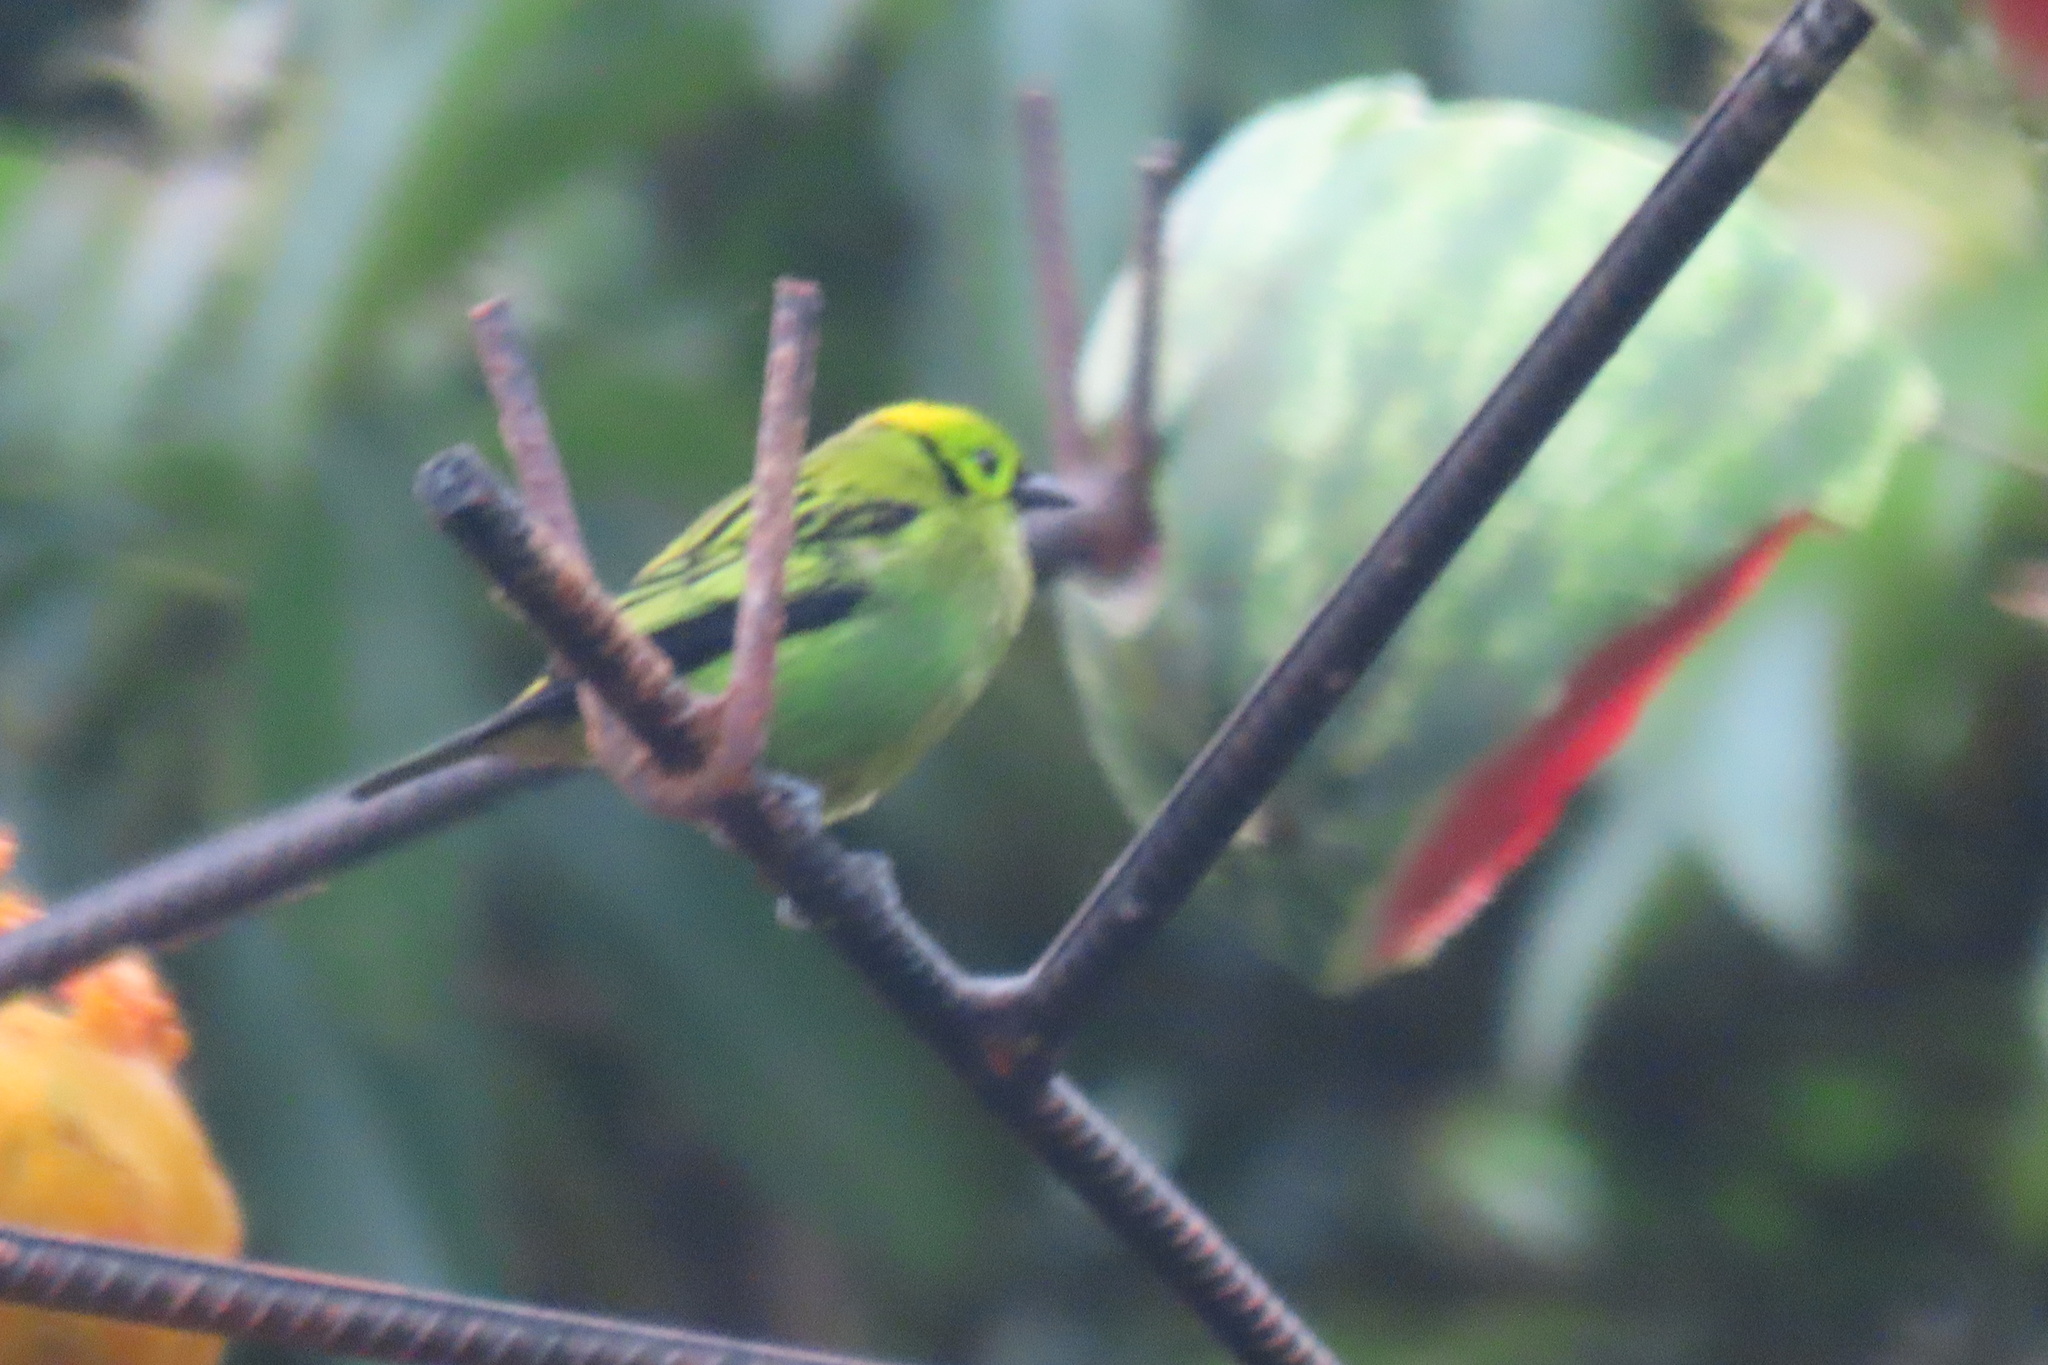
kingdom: Animalia
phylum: Chordata
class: Aves
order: Passeriformes
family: Thraupidae
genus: Tangara
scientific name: Tangara florida
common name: Emerald tanager
